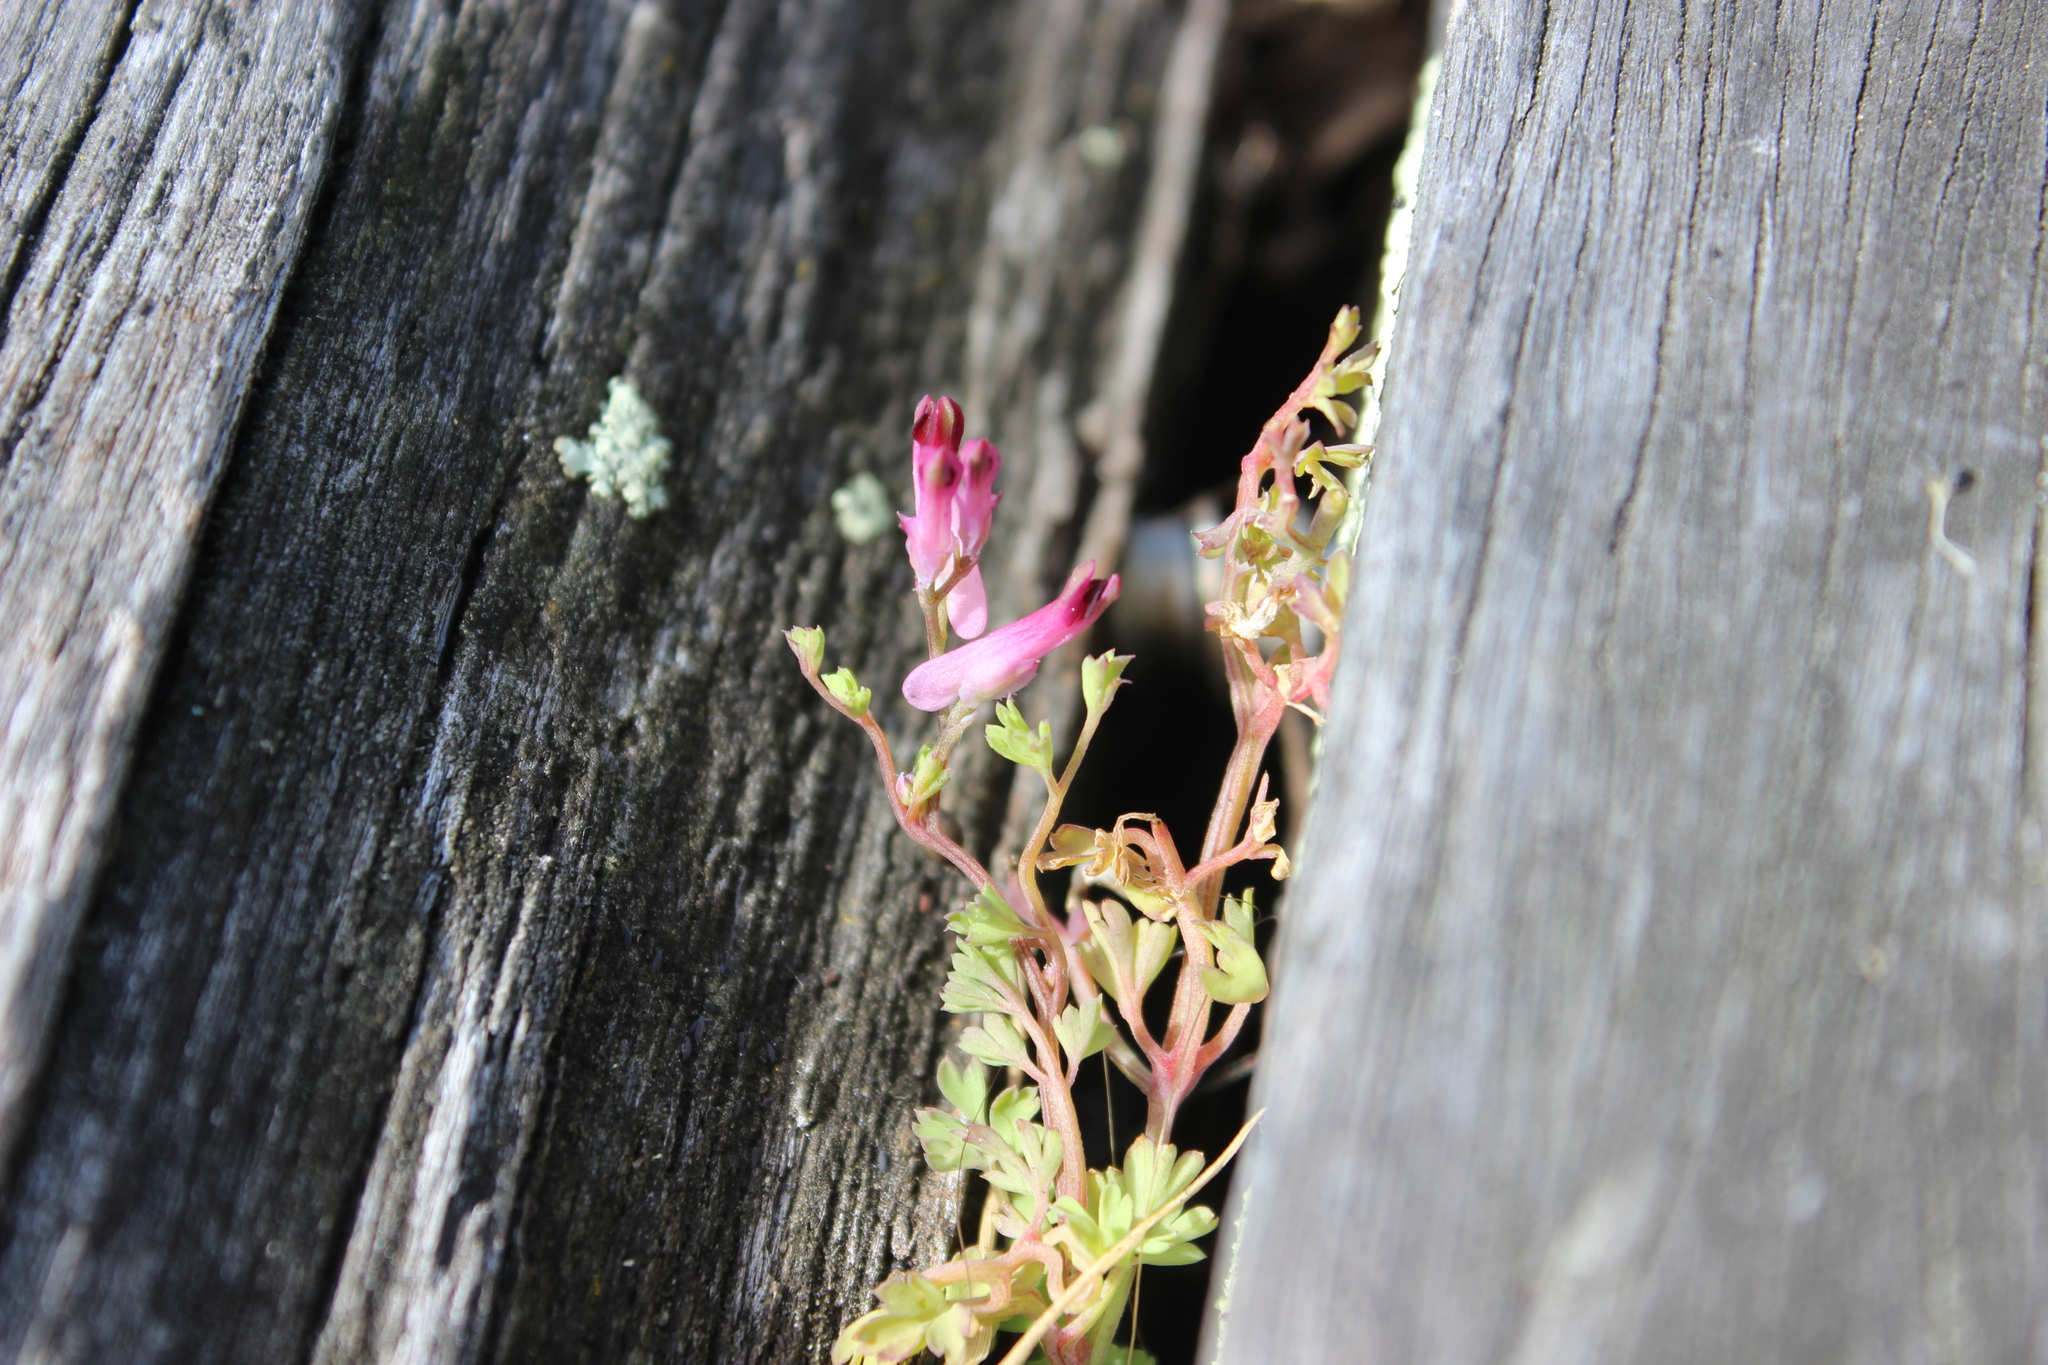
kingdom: Plantae
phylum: Tracheophyta
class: Magnoliopsida
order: Ranunculales
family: Papaveraceae
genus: Fumaria
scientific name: Fumaria muralis
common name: Common ramping-fumitory
